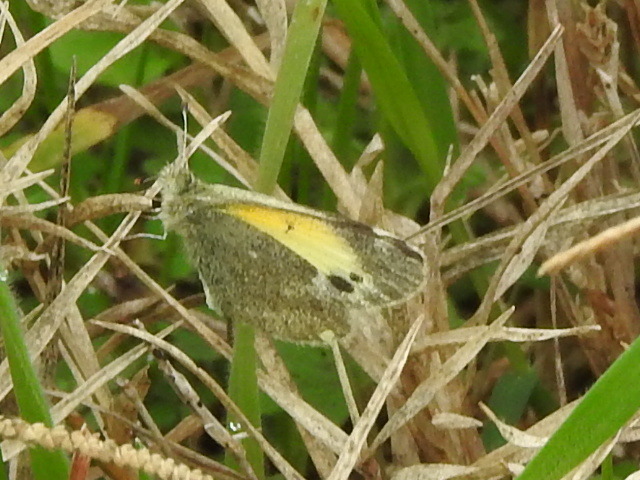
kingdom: Animalia
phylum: Arthropoda
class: Insecta
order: Lepidoptera
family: Pieridae
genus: Nathalis
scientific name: Nathalis iole
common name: Dainty sulphur
